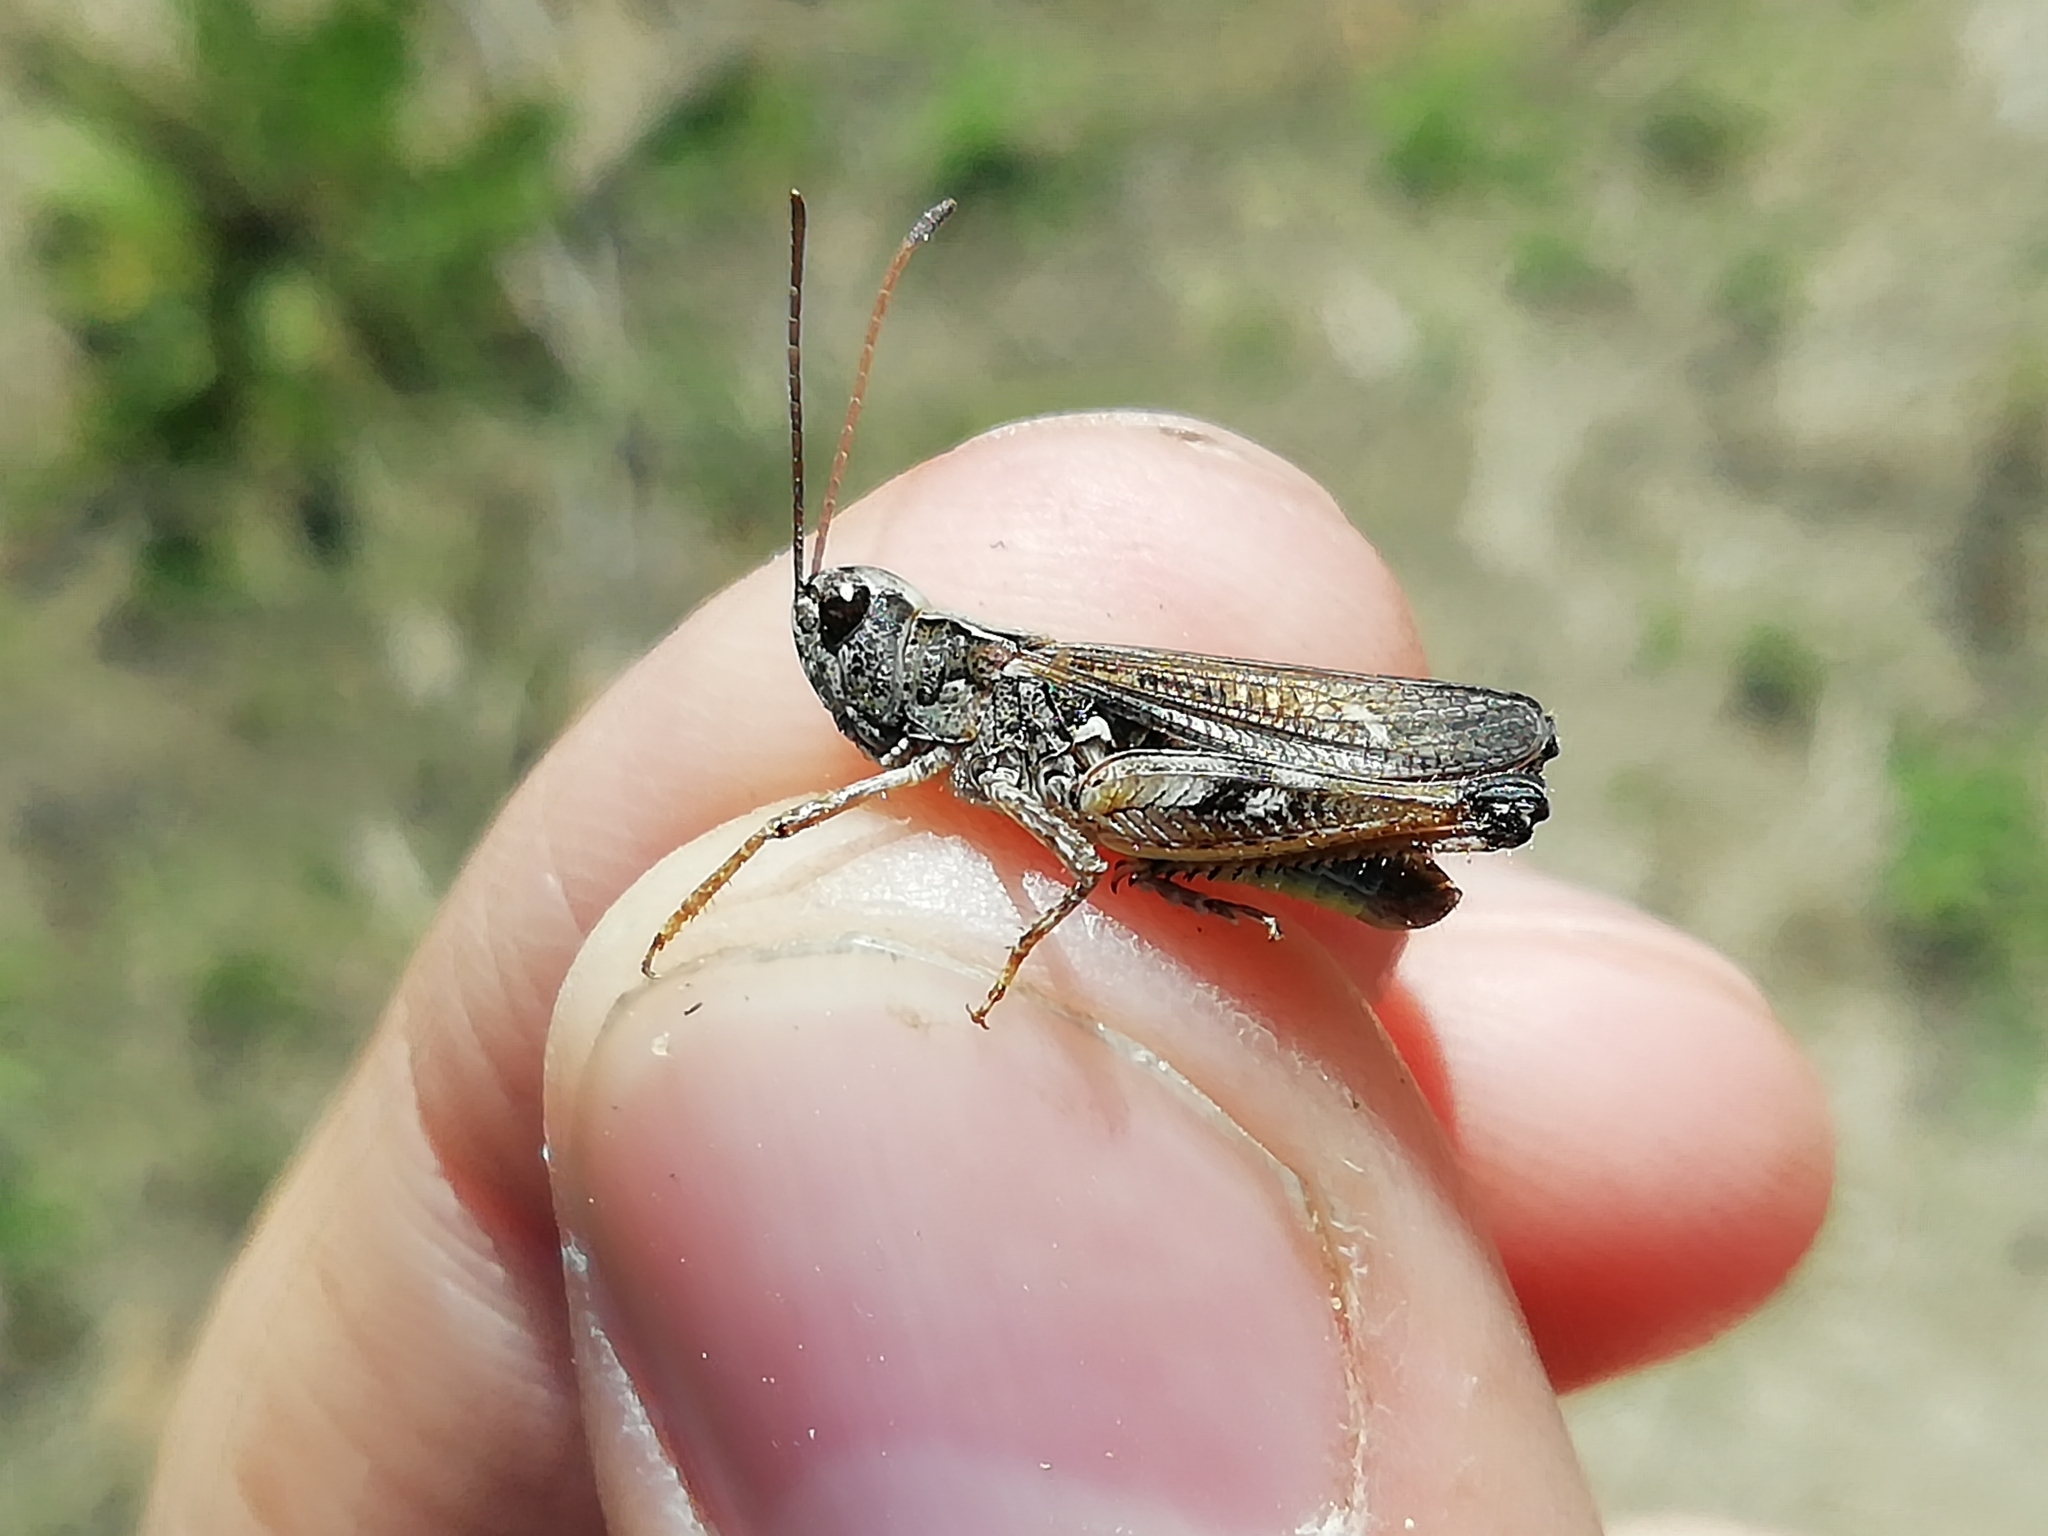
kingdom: Animalia
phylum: Arthropoda
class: Insecta
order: Orthoptera
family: Acrididae
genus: Myrmeleotettix
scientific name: Myrmeleotettix maculatus
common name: Mottled grasshopper
